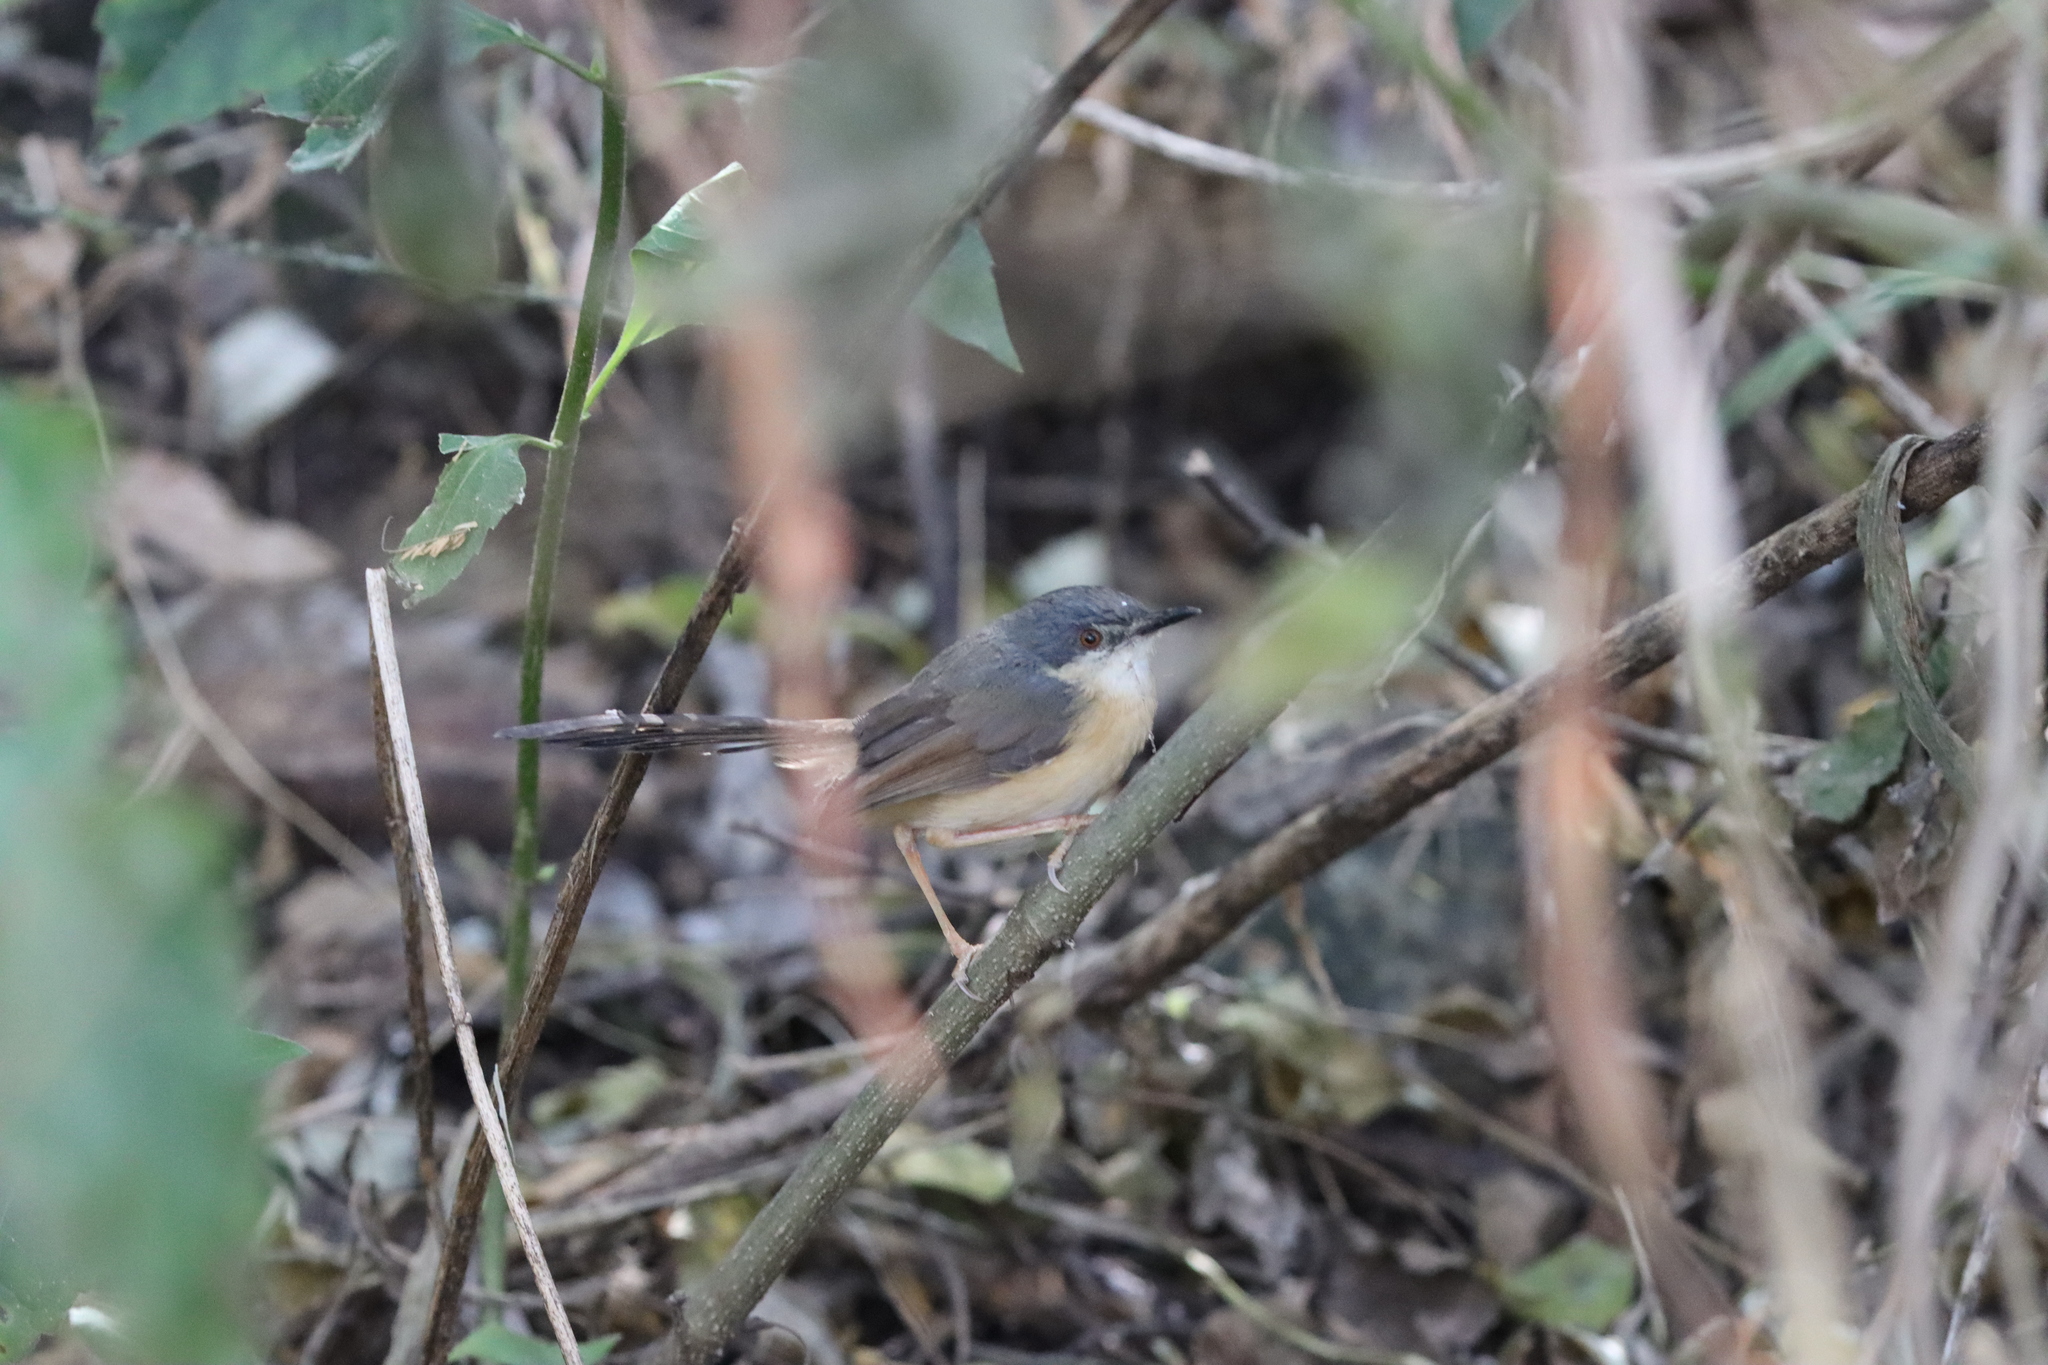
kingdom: Animalia
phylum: Chordata
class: Aves
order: Passeriformes
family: Cisticolidae
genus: Prinia
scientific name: Prinia socialis
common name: Ashy prinia
